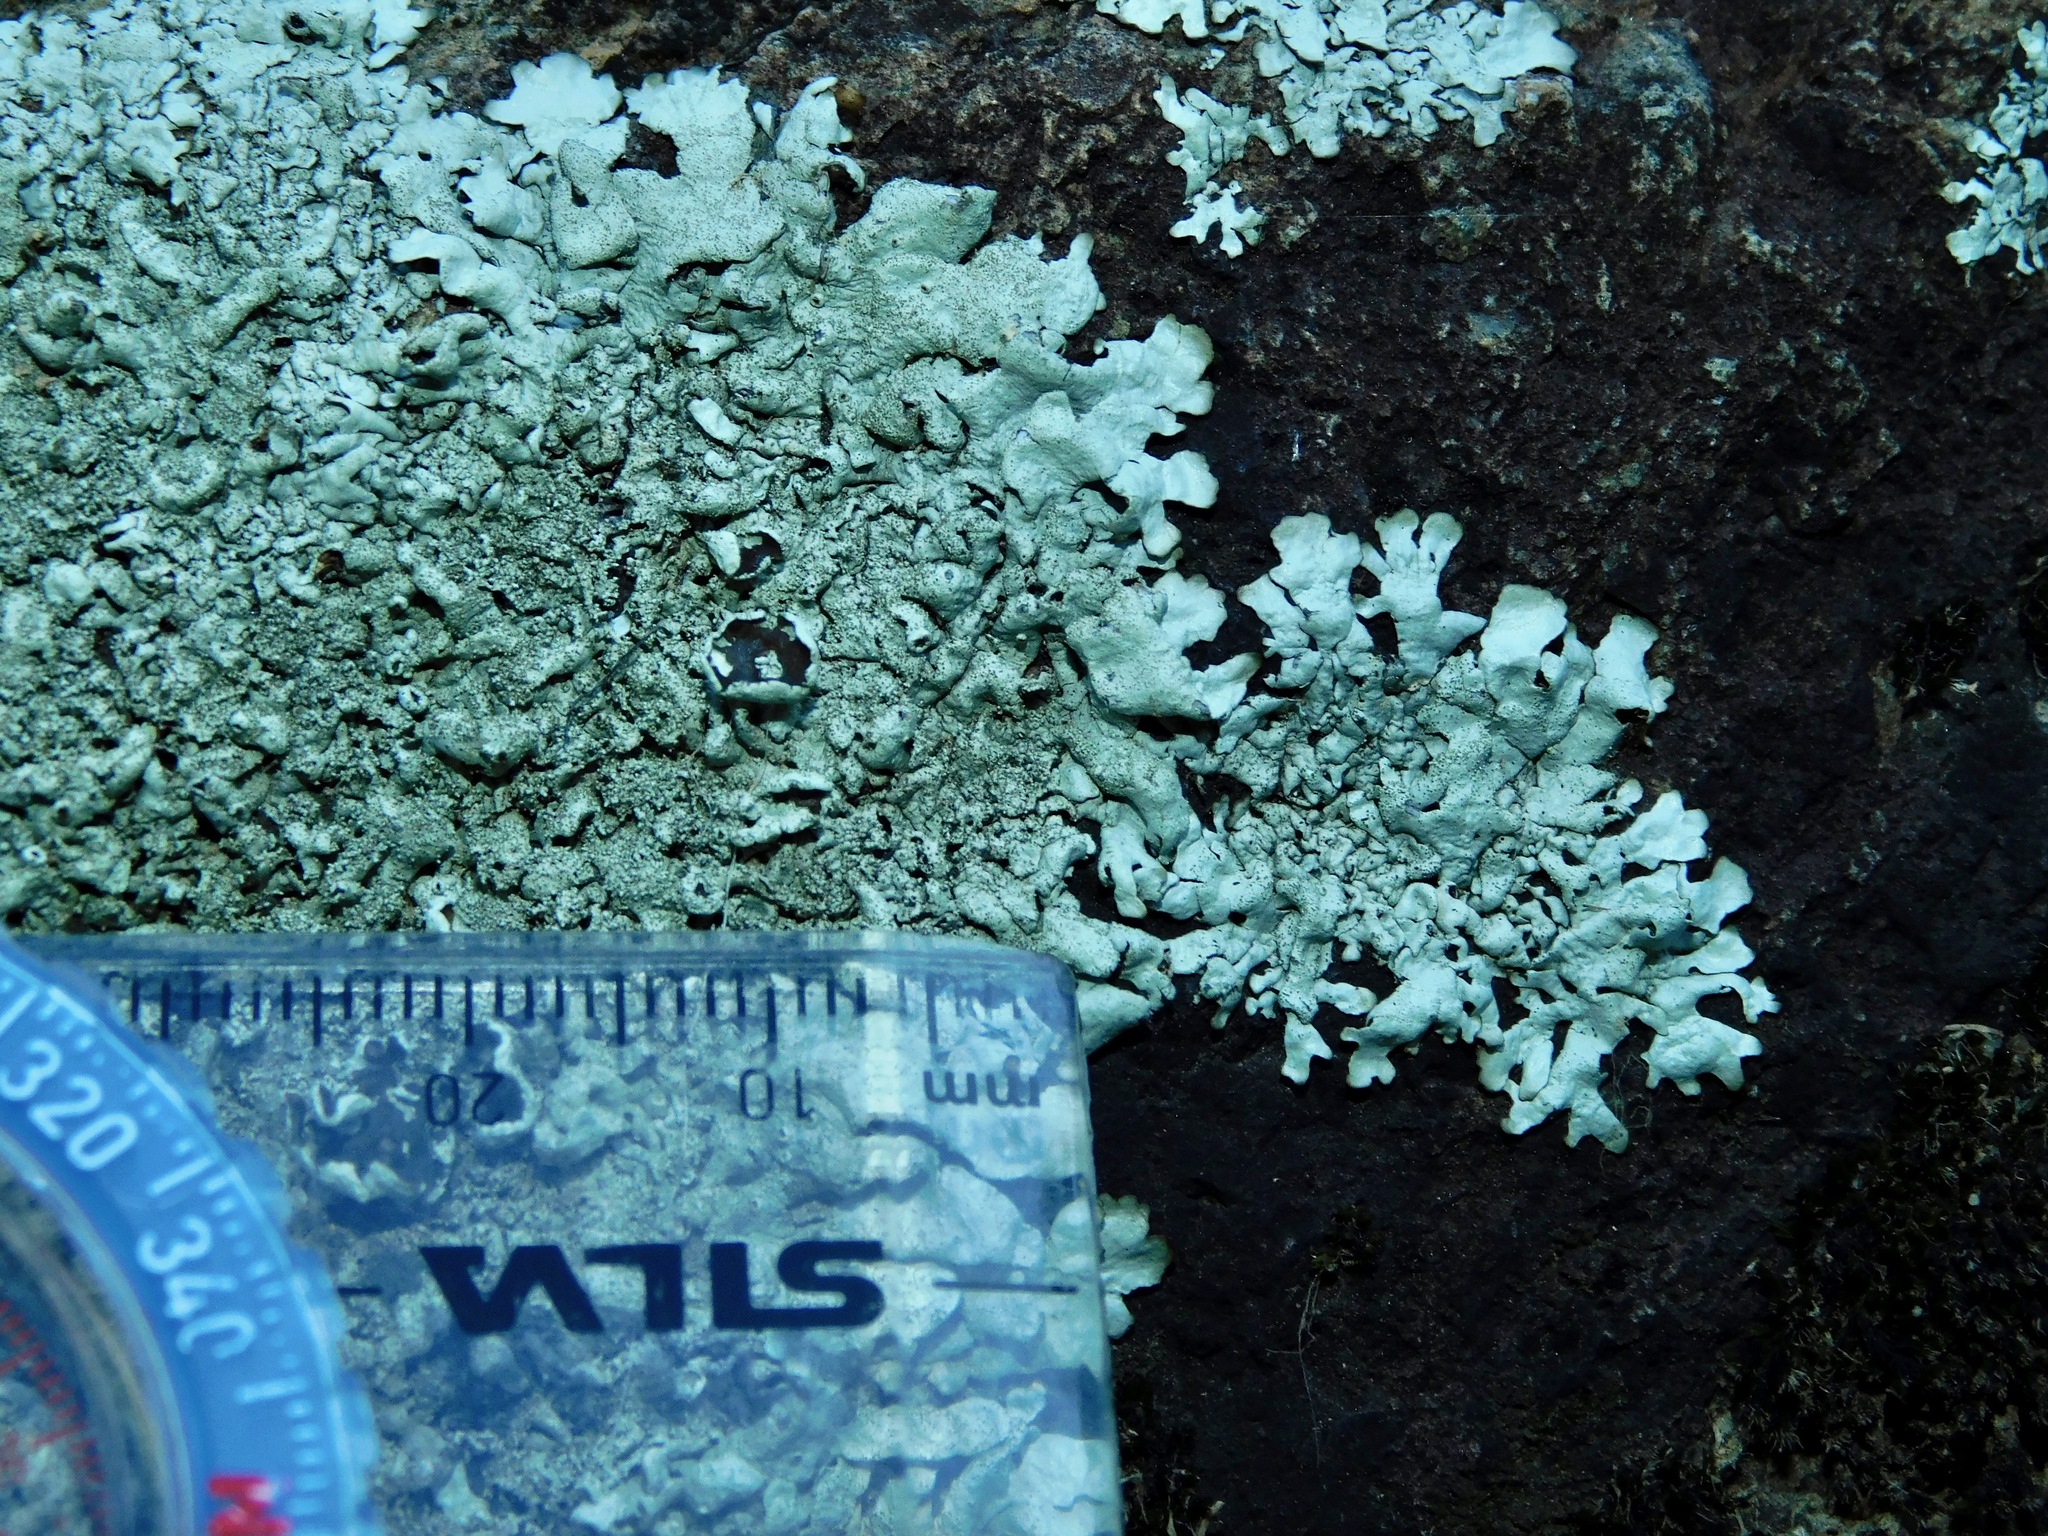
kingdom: Fungi
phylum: Ascomycota
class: Lecanoromycetes
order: Lecanorales
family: Parmeliaceae
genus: Xanthoparmelia
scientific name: Xanthoparmelia conspersa
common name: Peppered rock shield
